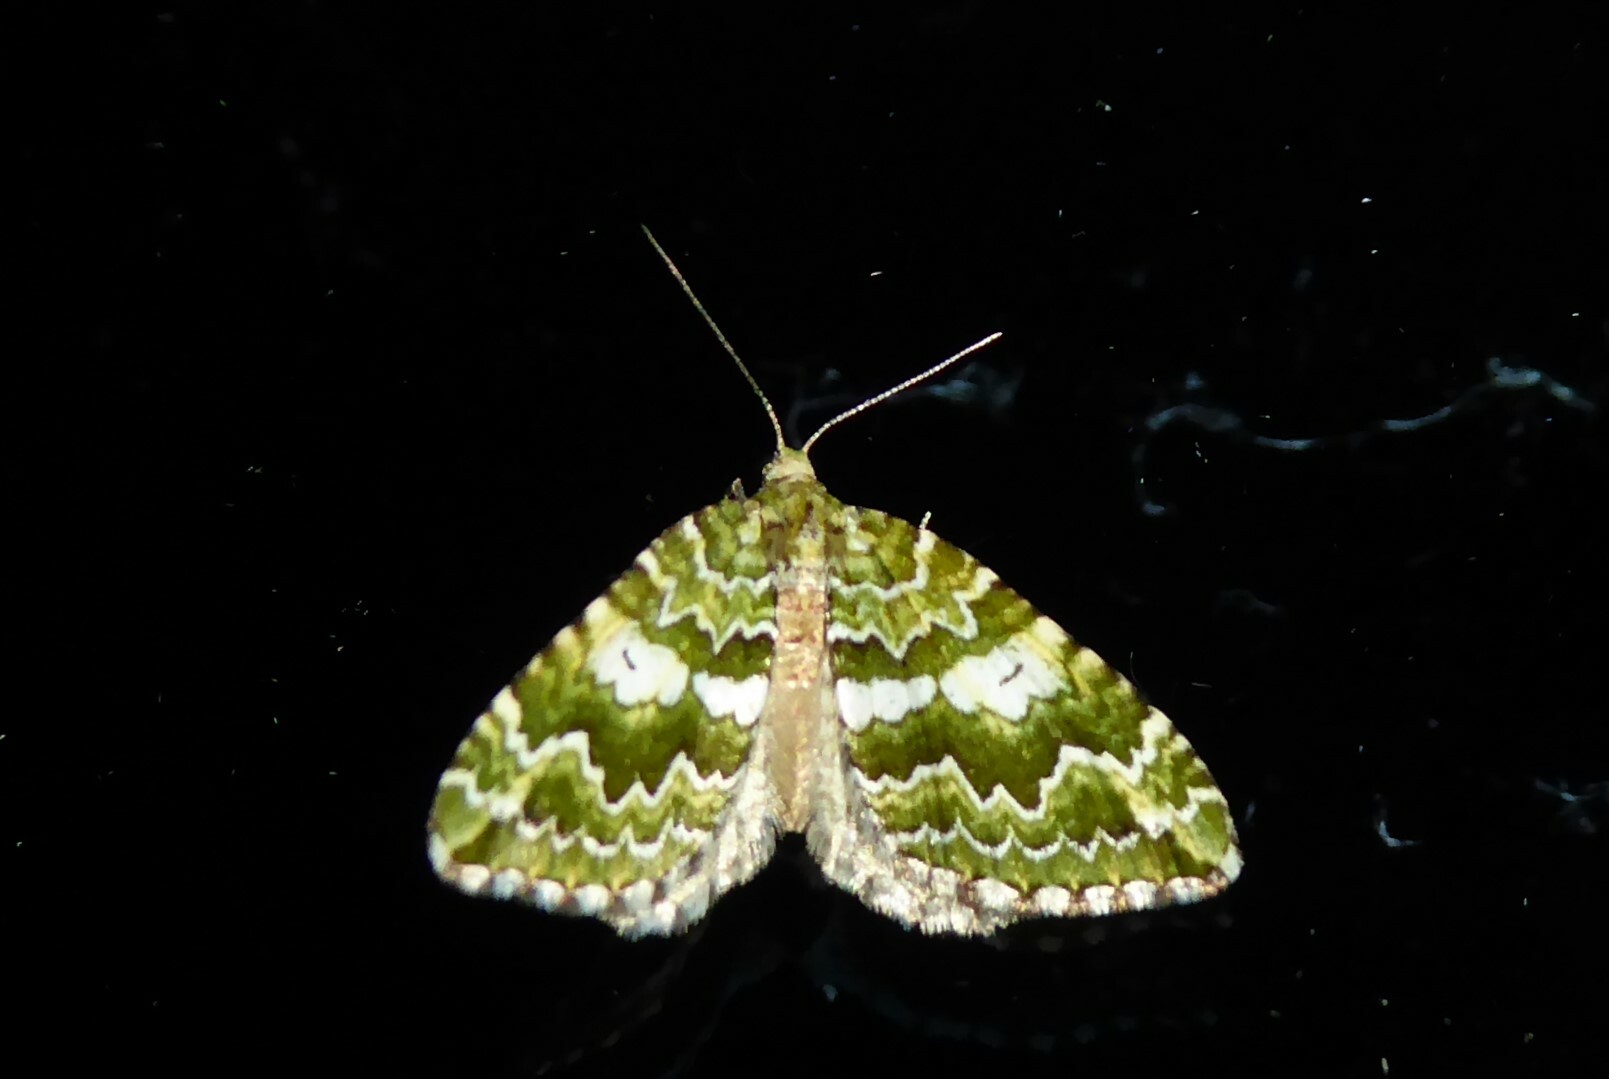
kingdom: Animalia
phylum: Arthropoda
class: Insecta
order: Lepidoptera
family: Geometridae
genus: Asaphodes
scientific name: Asaphodes beata
